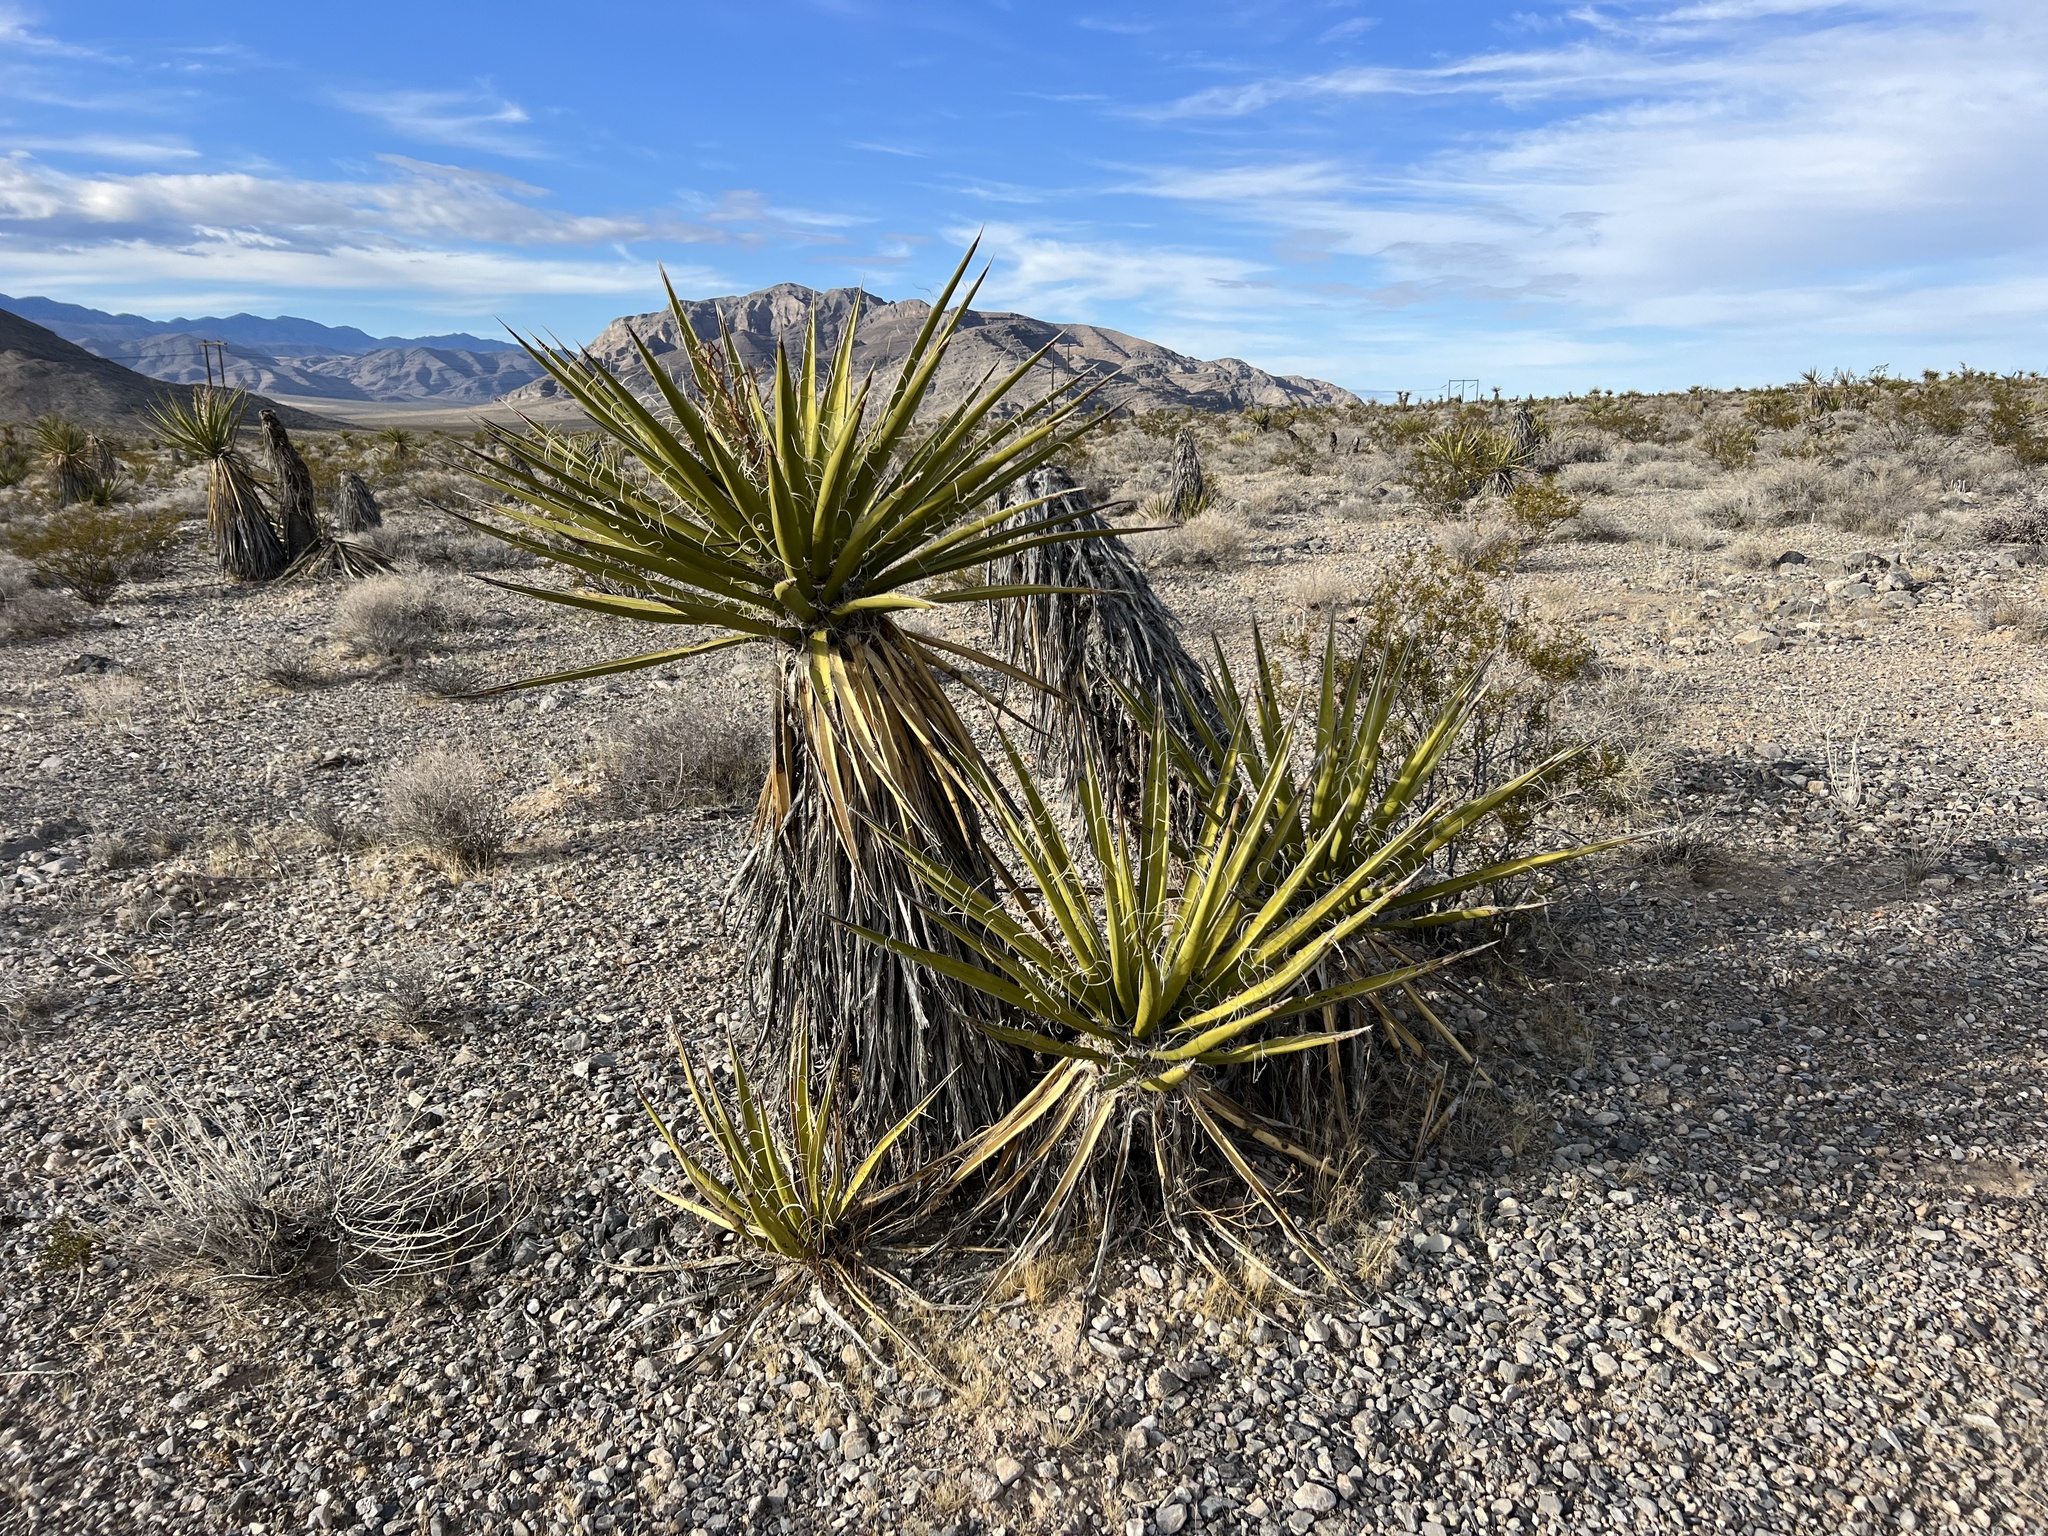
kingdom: Plantae
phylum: Tracheophyta
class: Liliopsida
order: Asparagales
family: Asparagaceae
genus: Yucca
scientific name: Yucca schidigera
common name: Mojave yucca
